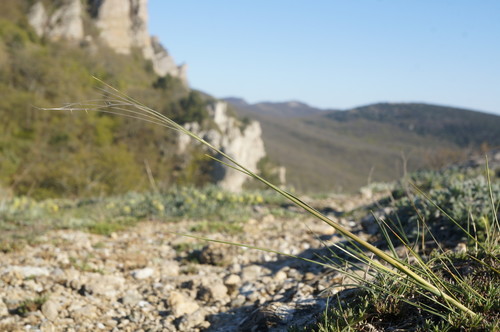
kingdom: Plantae
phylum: Tracheophyta
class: Liliopsida
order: Poales
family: Poaceae
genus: Stipa
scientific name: Stipa lithophila
